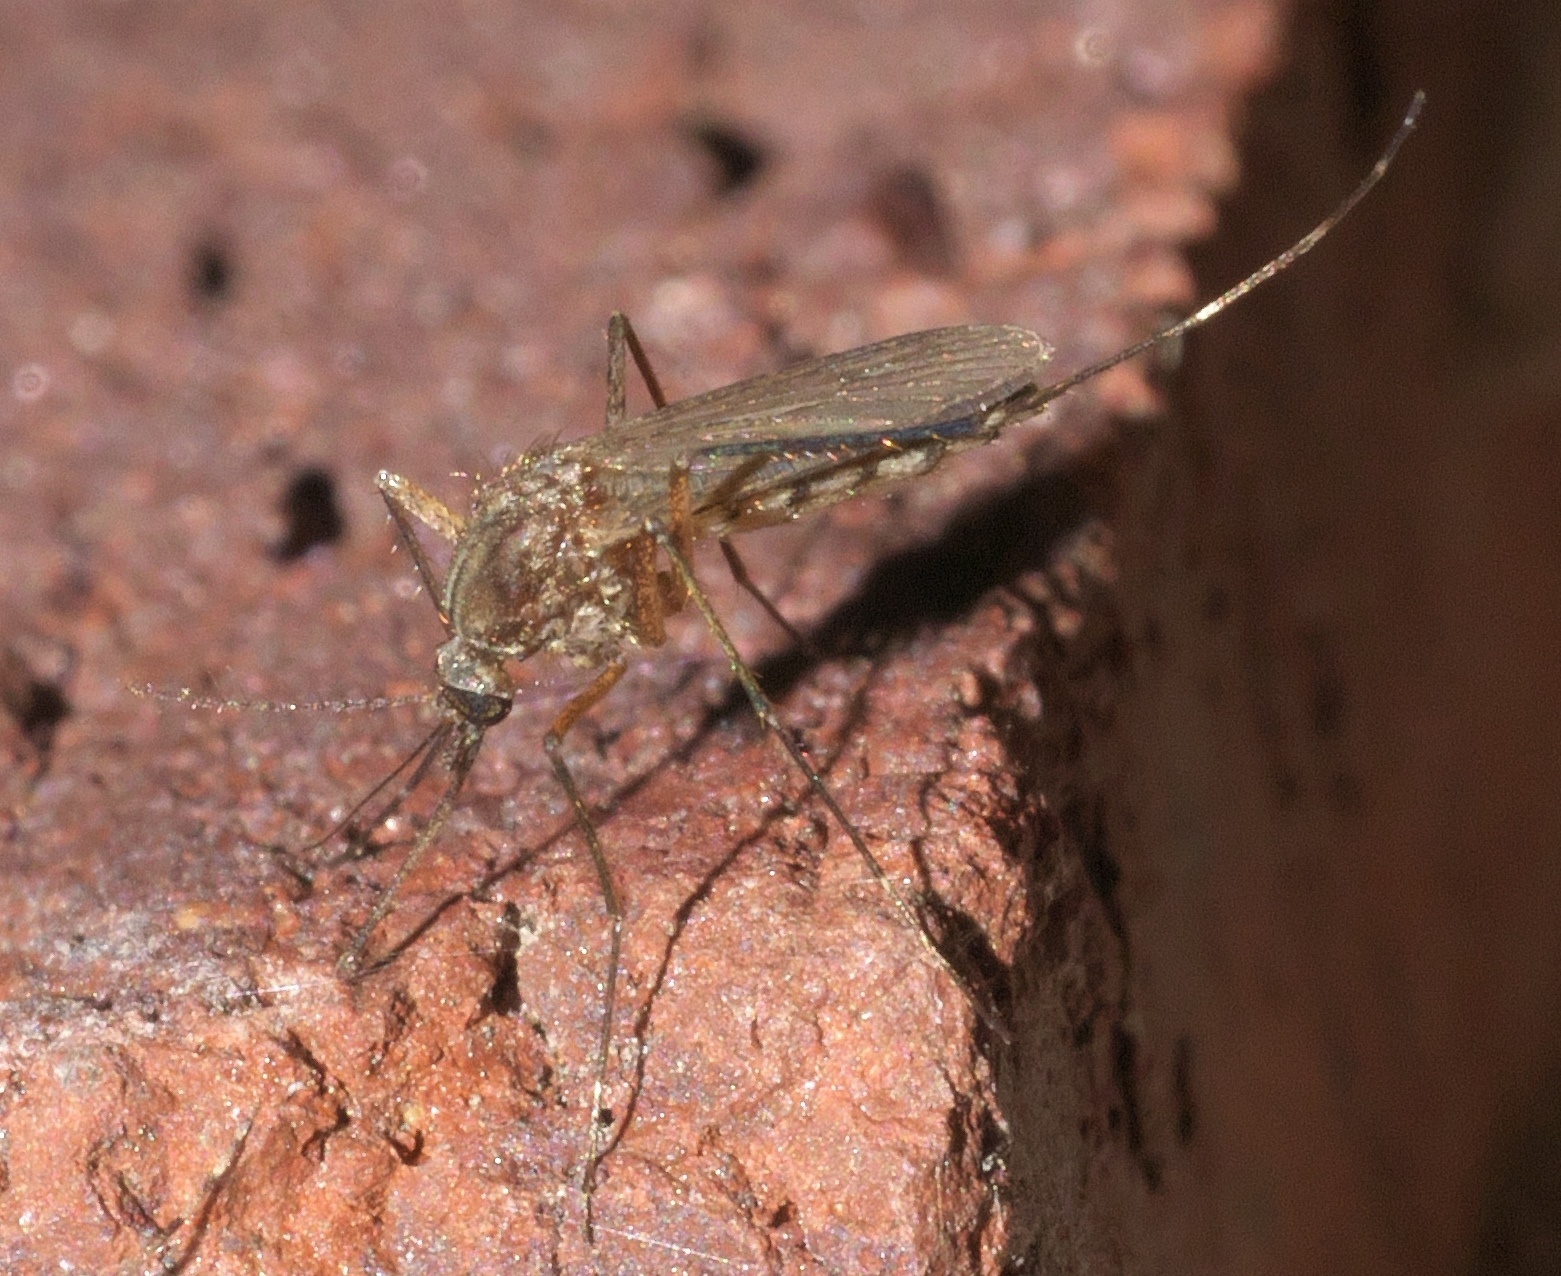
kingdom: Animalia
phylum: Arthropoda
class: Insecta
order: Diptera
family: Culicidae
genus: Aedes
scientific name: Aedes vexans
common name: Inland floodwater mosquito
